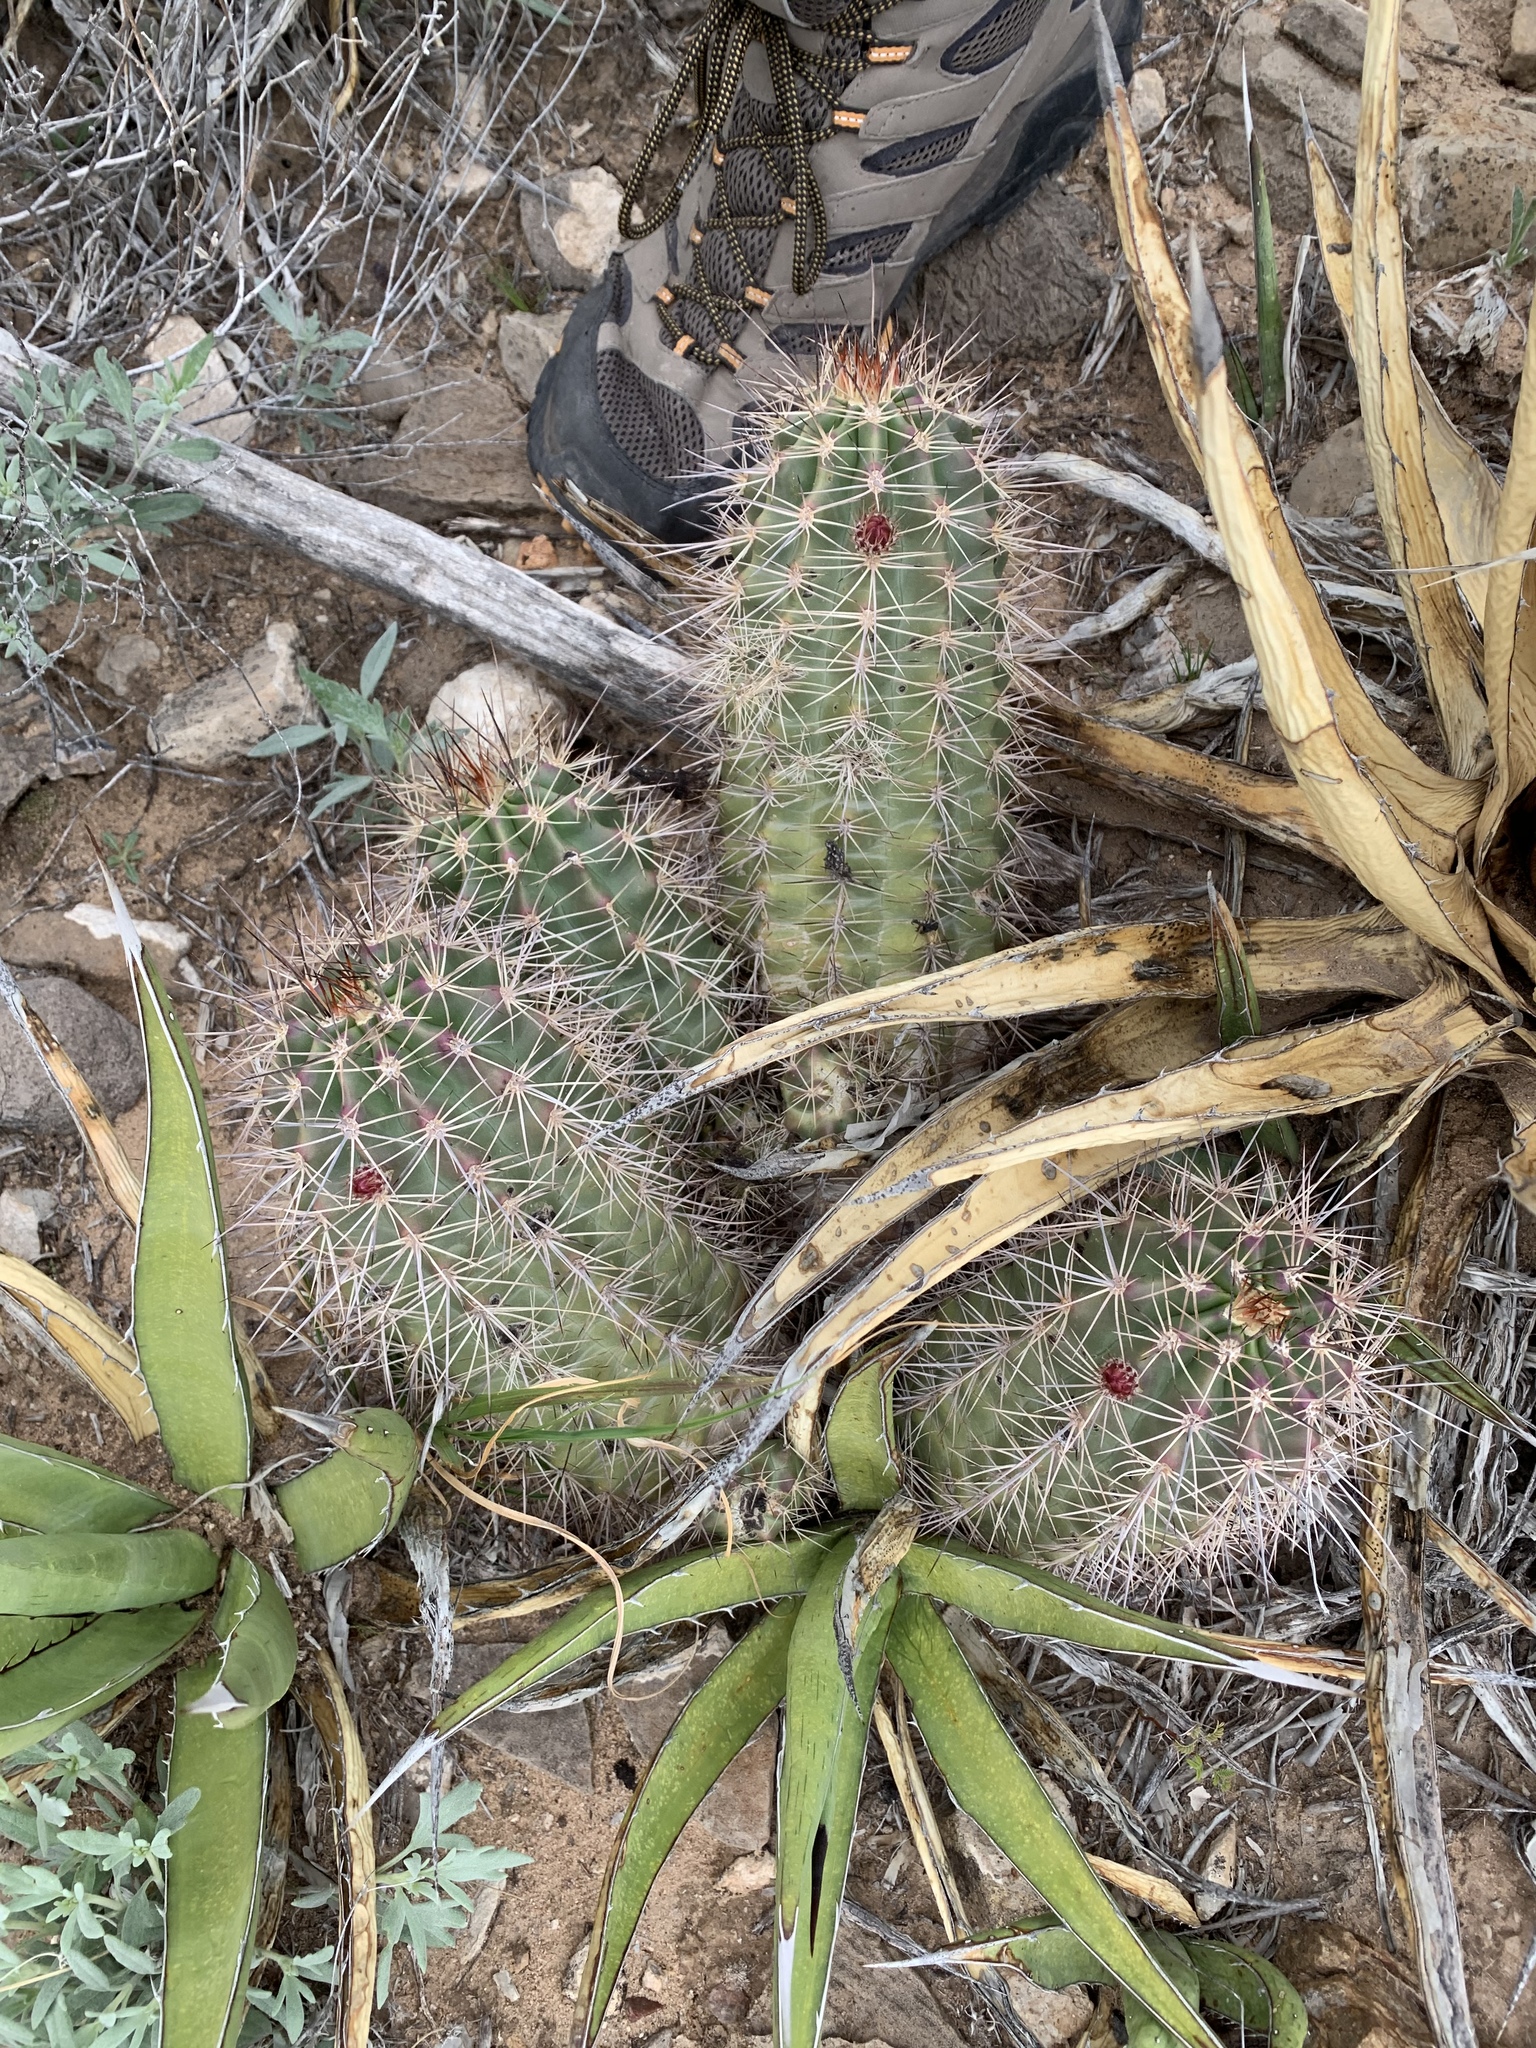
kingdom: Plantae
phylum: Tracheophyta
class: Magnoliopsida
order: Caryophyllales
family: Cactaceae
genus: Echinocereus
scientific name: Echinocereus coccineus
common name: Scarlet hedgehog cactus
